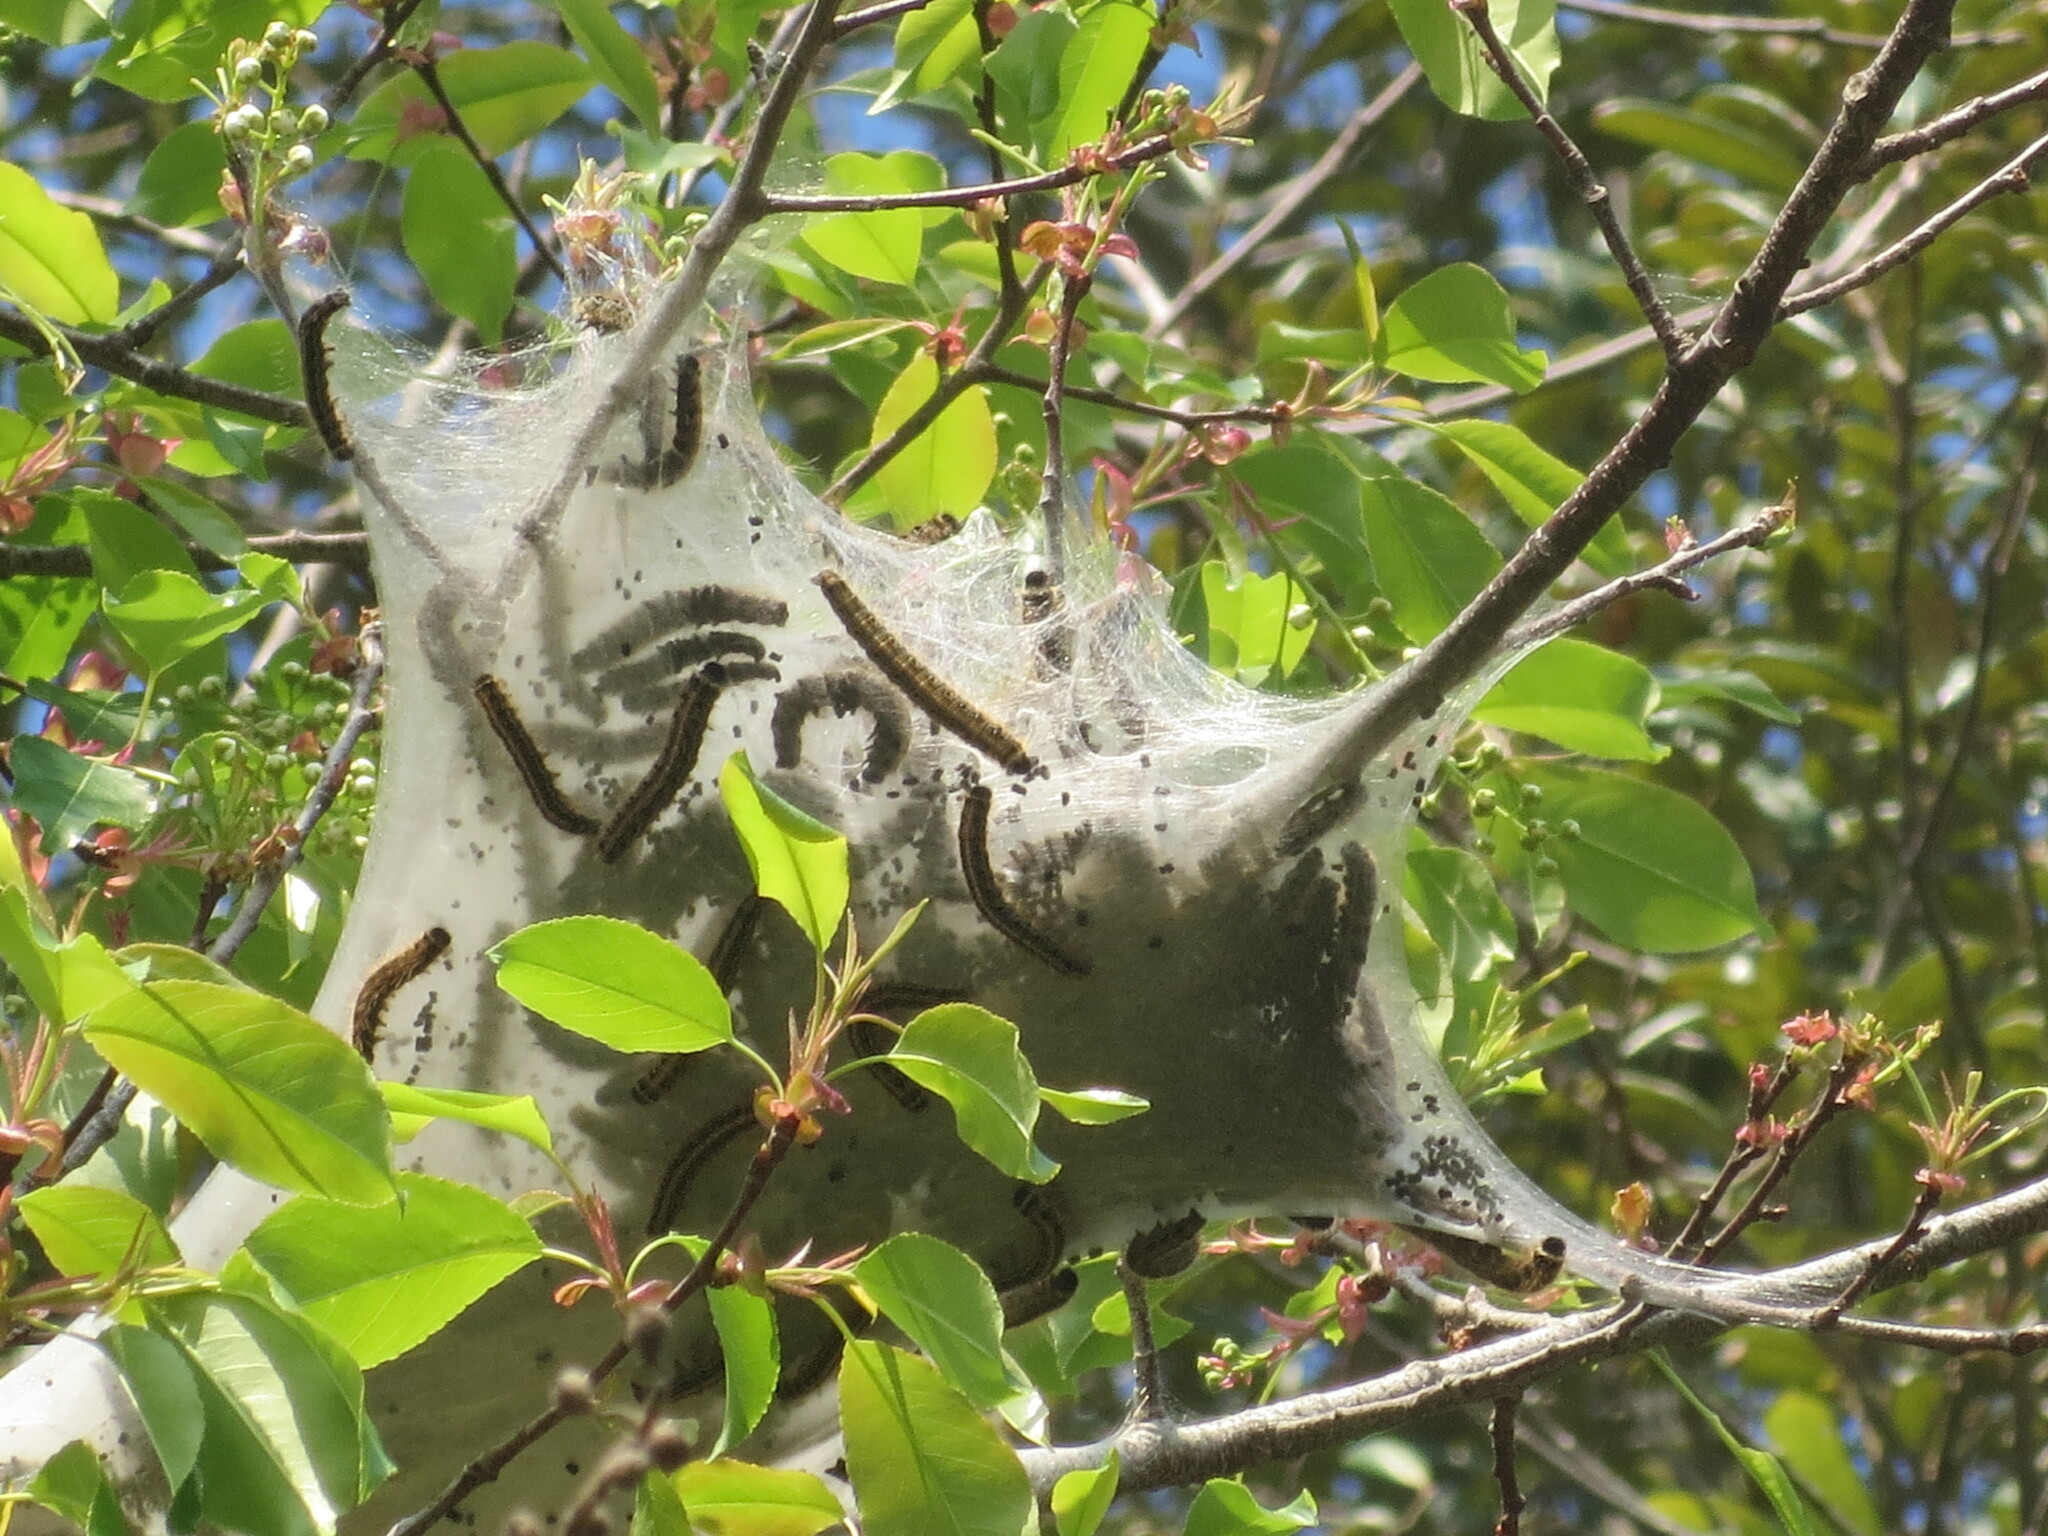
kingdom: Plantae
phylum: Tracheophyta
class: Magnoliopsida
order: Rosales
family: Rosaceae
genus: Prunus
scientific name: Prunus serotina
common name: Black cherry
